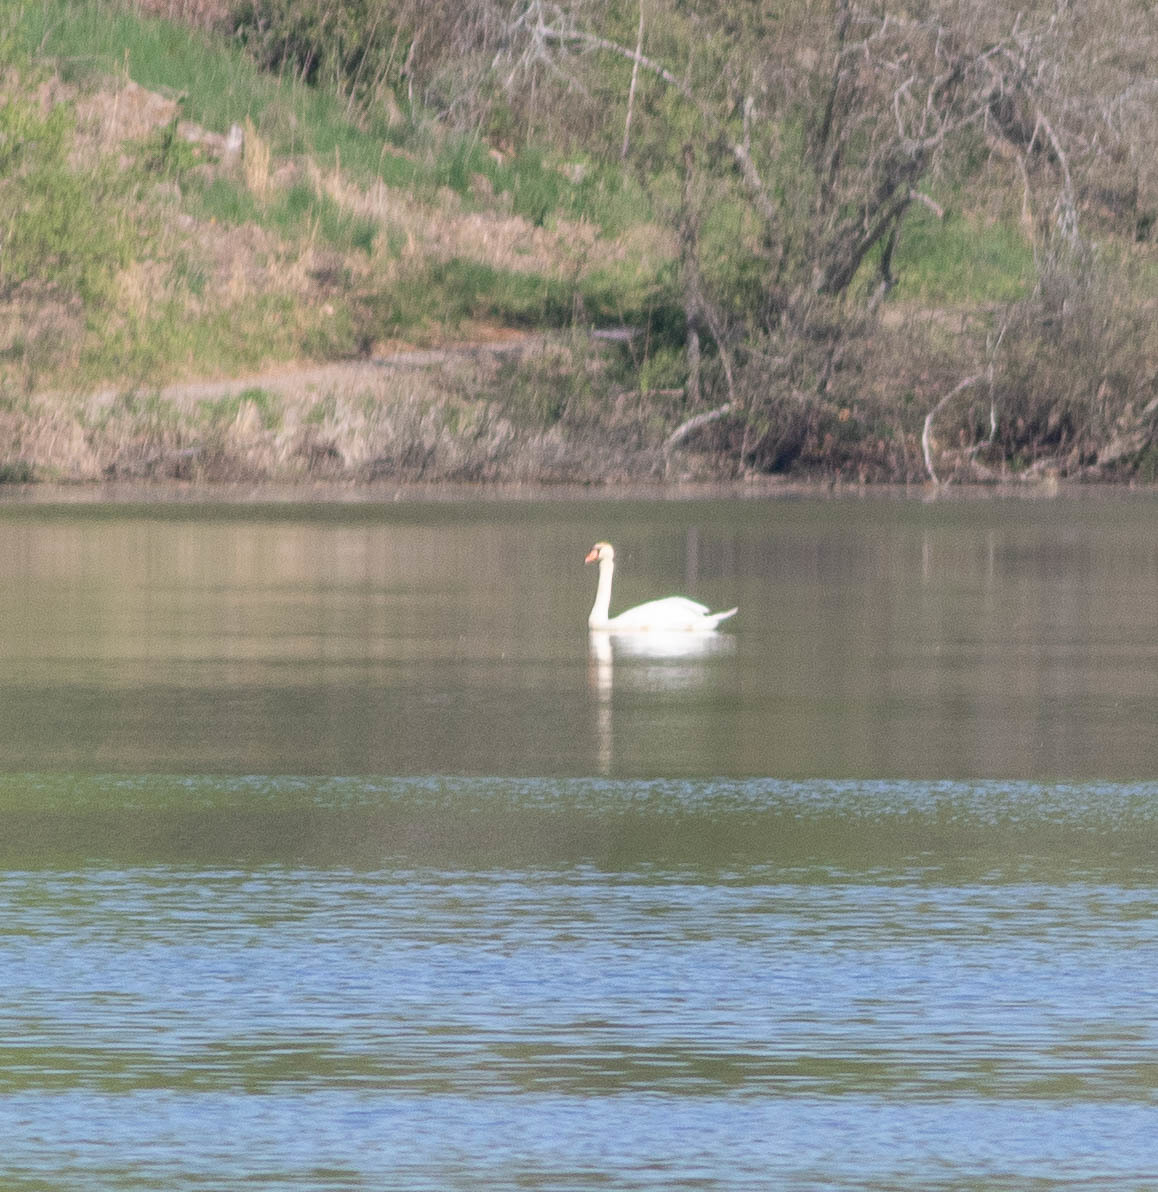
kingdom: Animalia
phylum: Chordata
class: Aves
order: Anseriformes
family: Anatidae
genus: Cygnus
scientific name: Cygnus olor
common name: Mute swan
